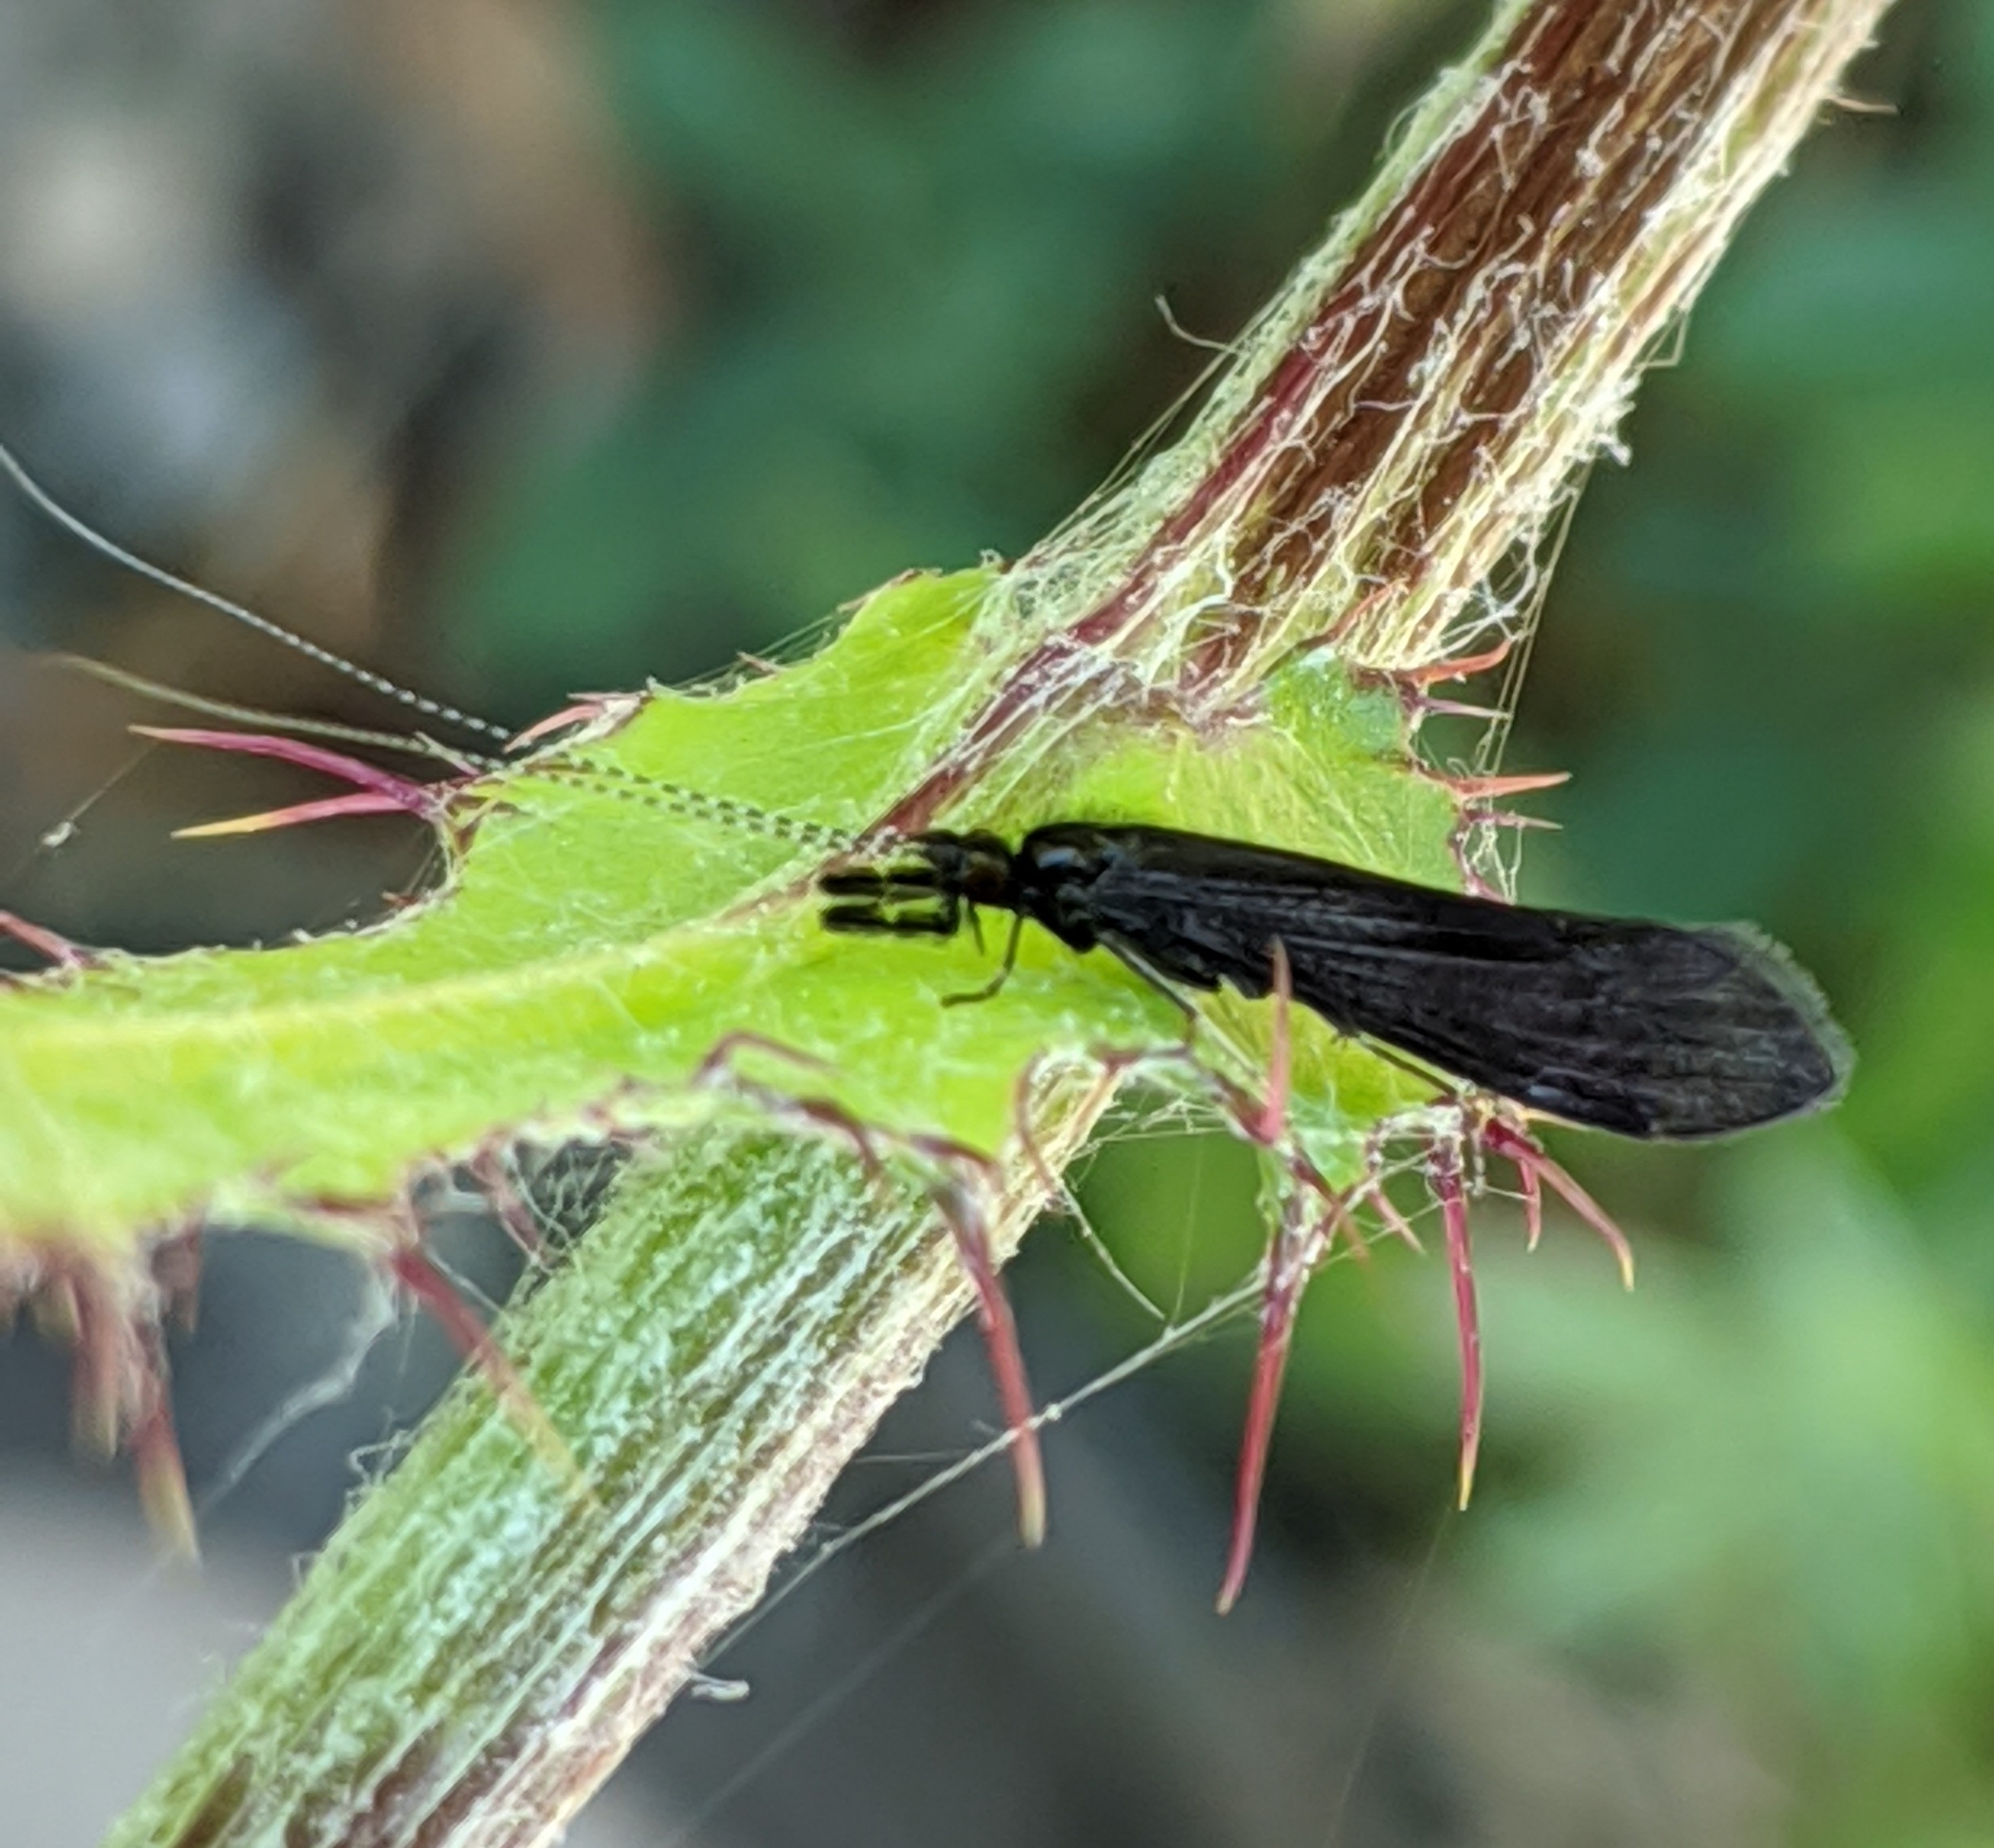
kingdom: Animalia
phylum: Arthropoda
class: Insecta
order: Trichoptera
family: Leptoceridae
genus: Mystacides
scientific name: Mystacides alafimbriatus
